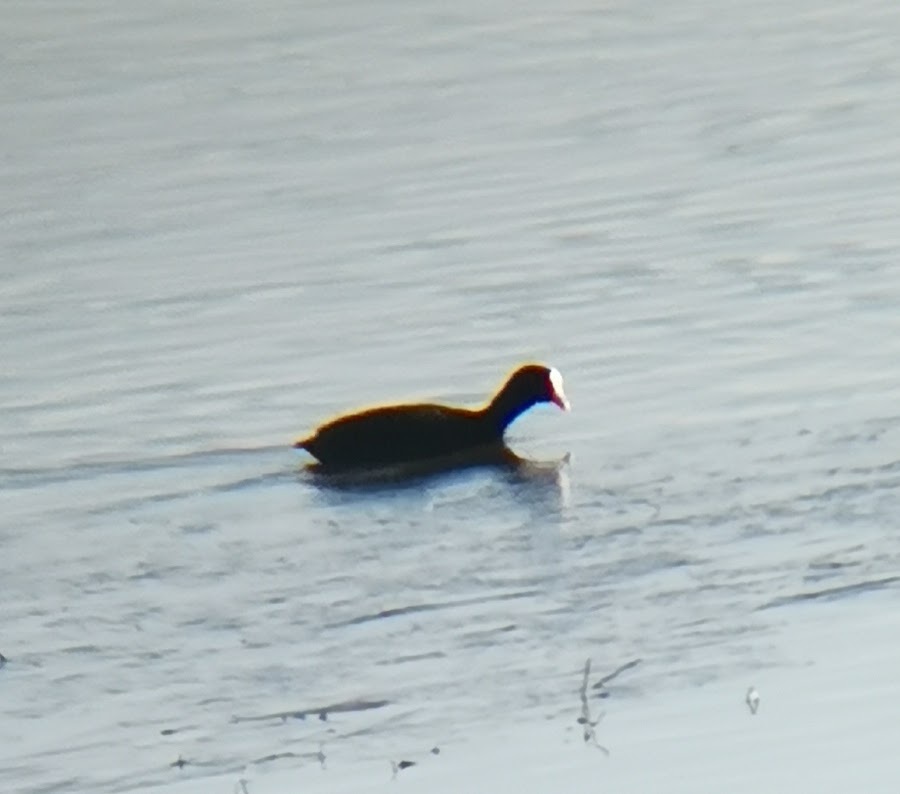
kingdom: Animalia
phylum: Chordata
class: Aves
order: Gruiformes
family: Rallidae
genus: Fulica
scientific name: Fulica atra
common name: Eurasian coot
